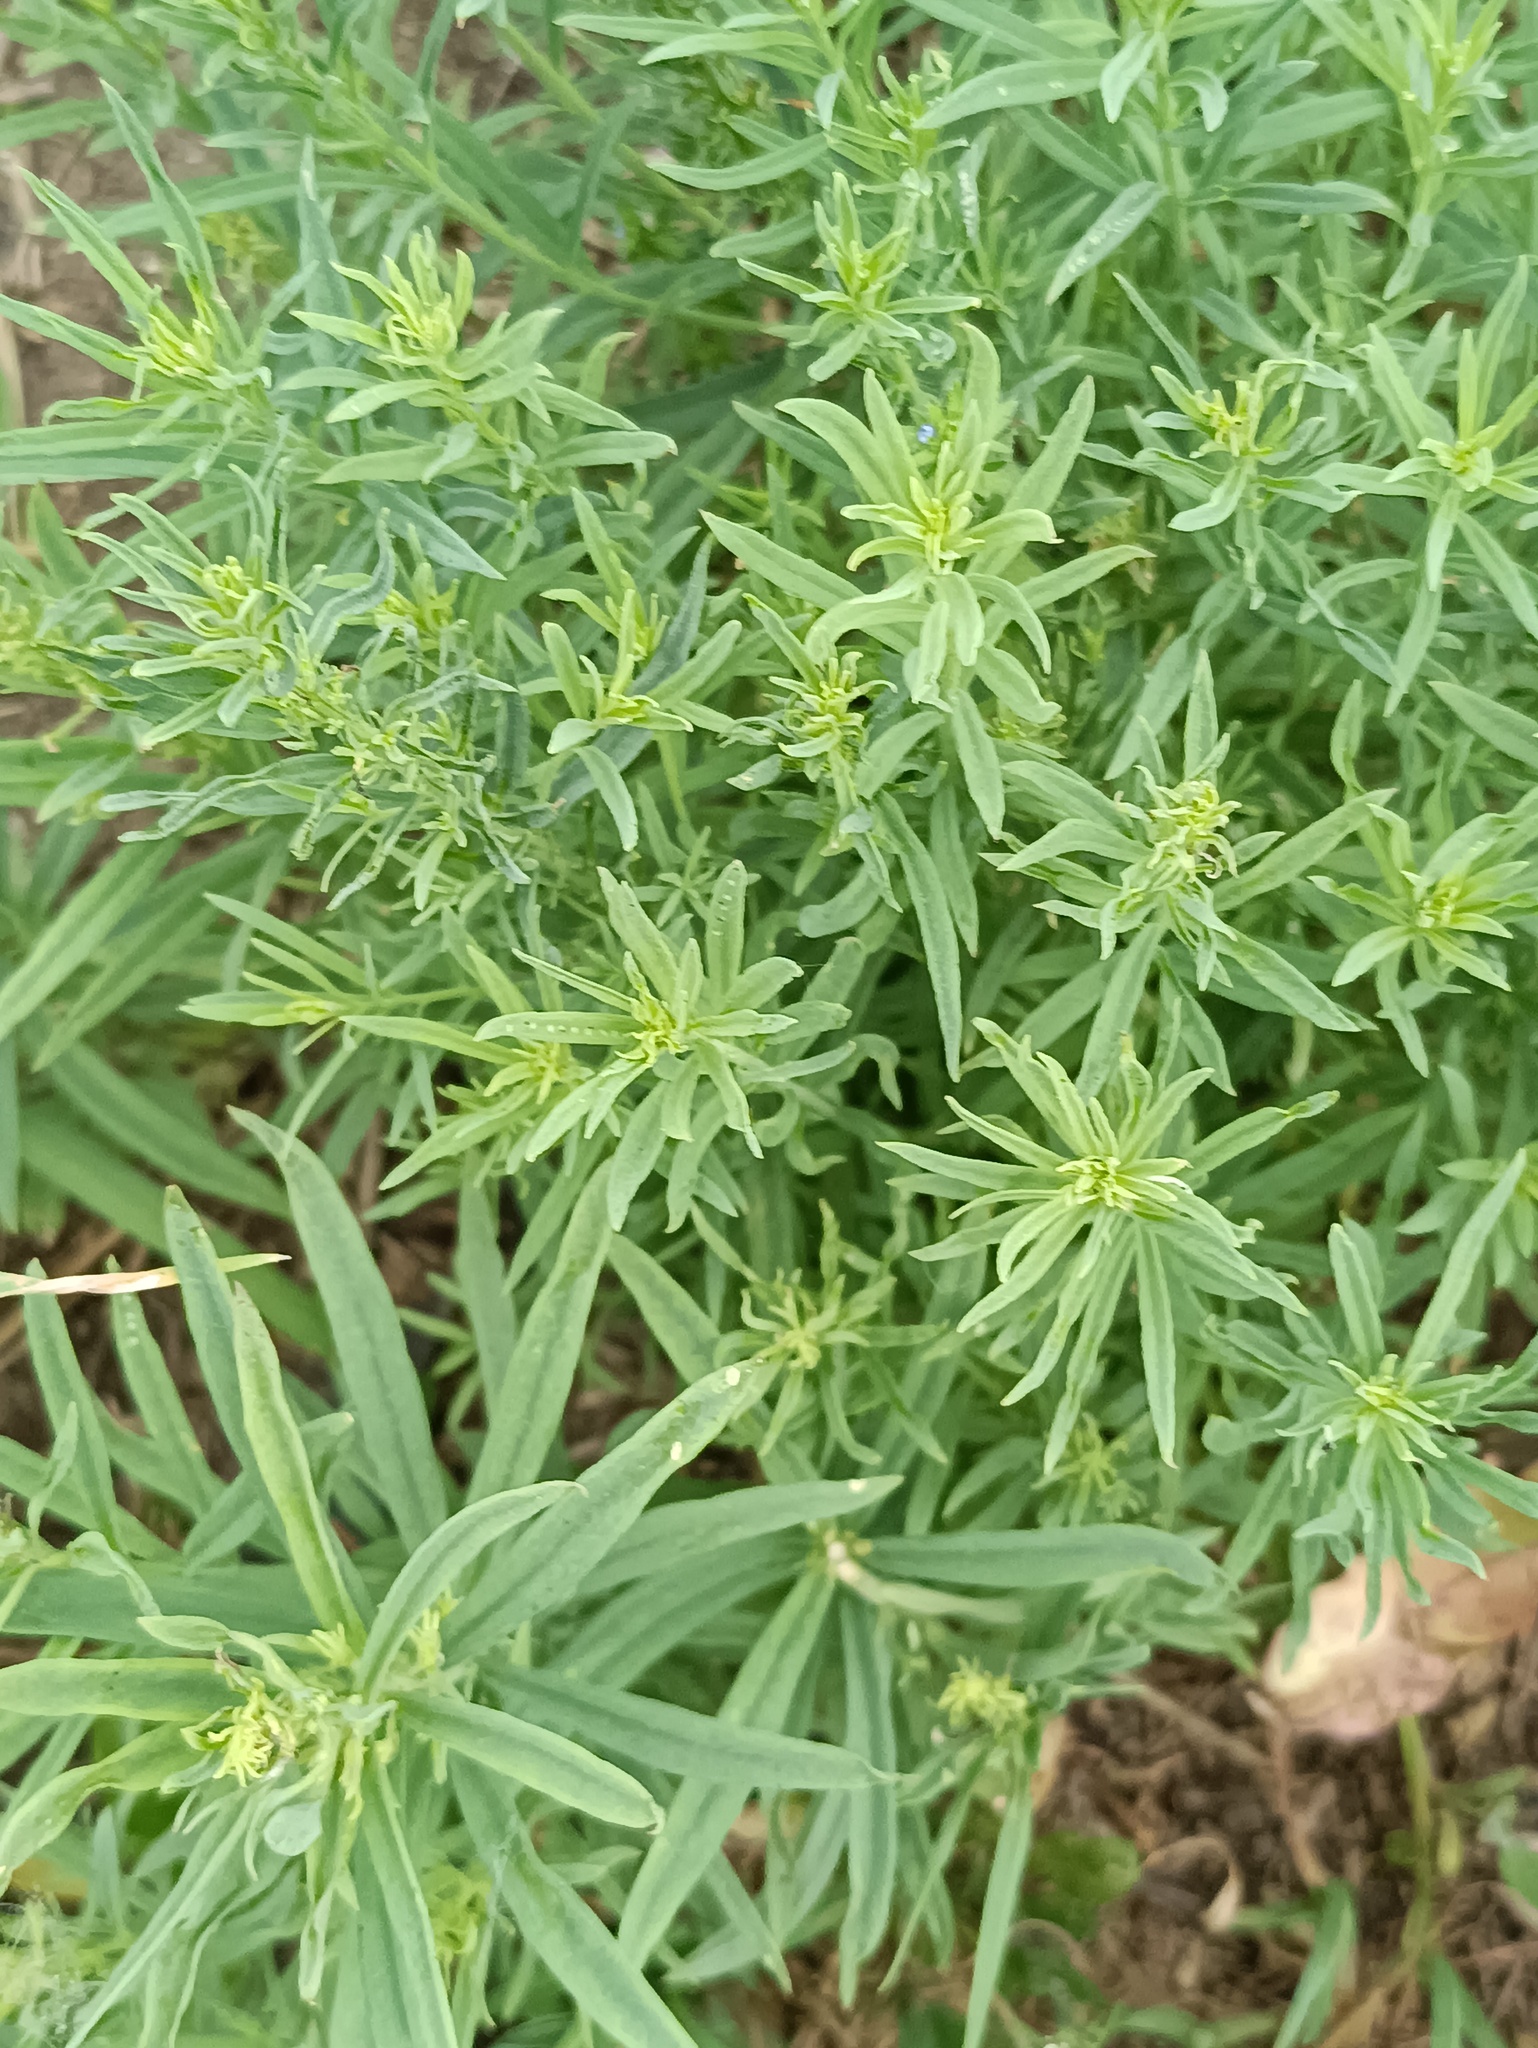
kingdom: Plantae
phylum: Tracheophyta
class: Magnoliopsida
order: Lamiales
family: Plantaginaceae
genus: Linaria
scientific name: Linaria vulgaris
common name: Butter and eggs
